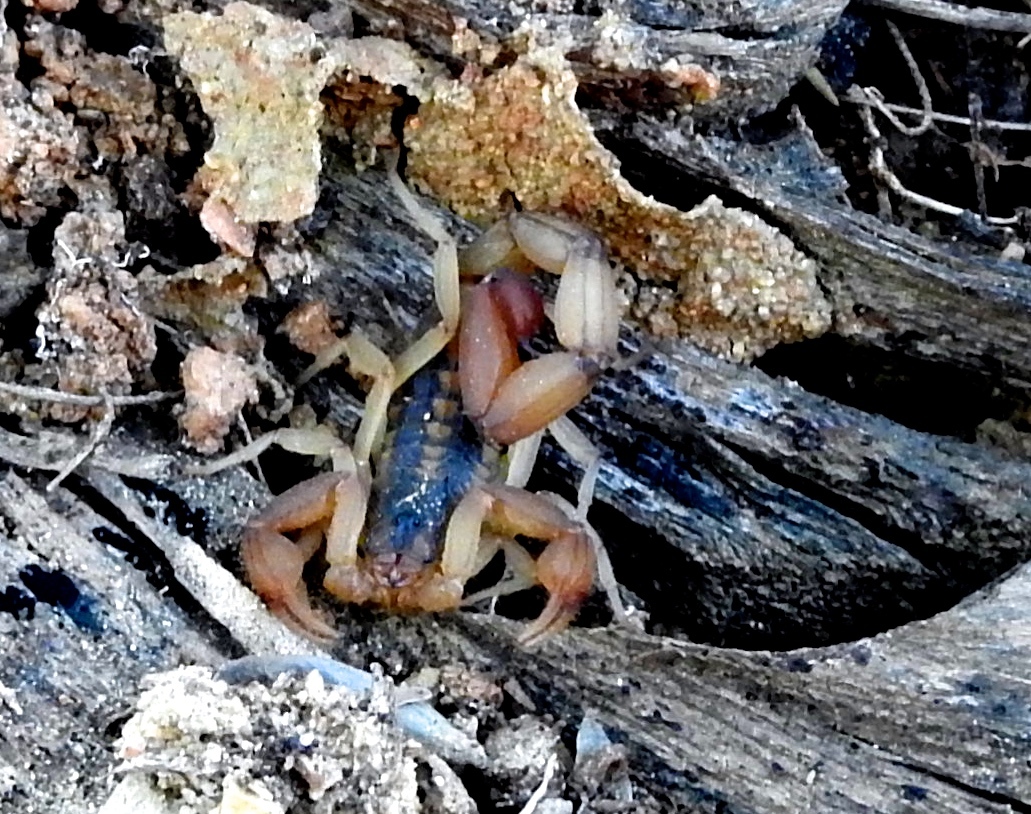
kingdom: Animalia
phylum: Arthropoda
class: Arachnida
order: Scorpiones
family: Buthidae
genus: Centruroides
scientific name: Centruroides baldazoi
